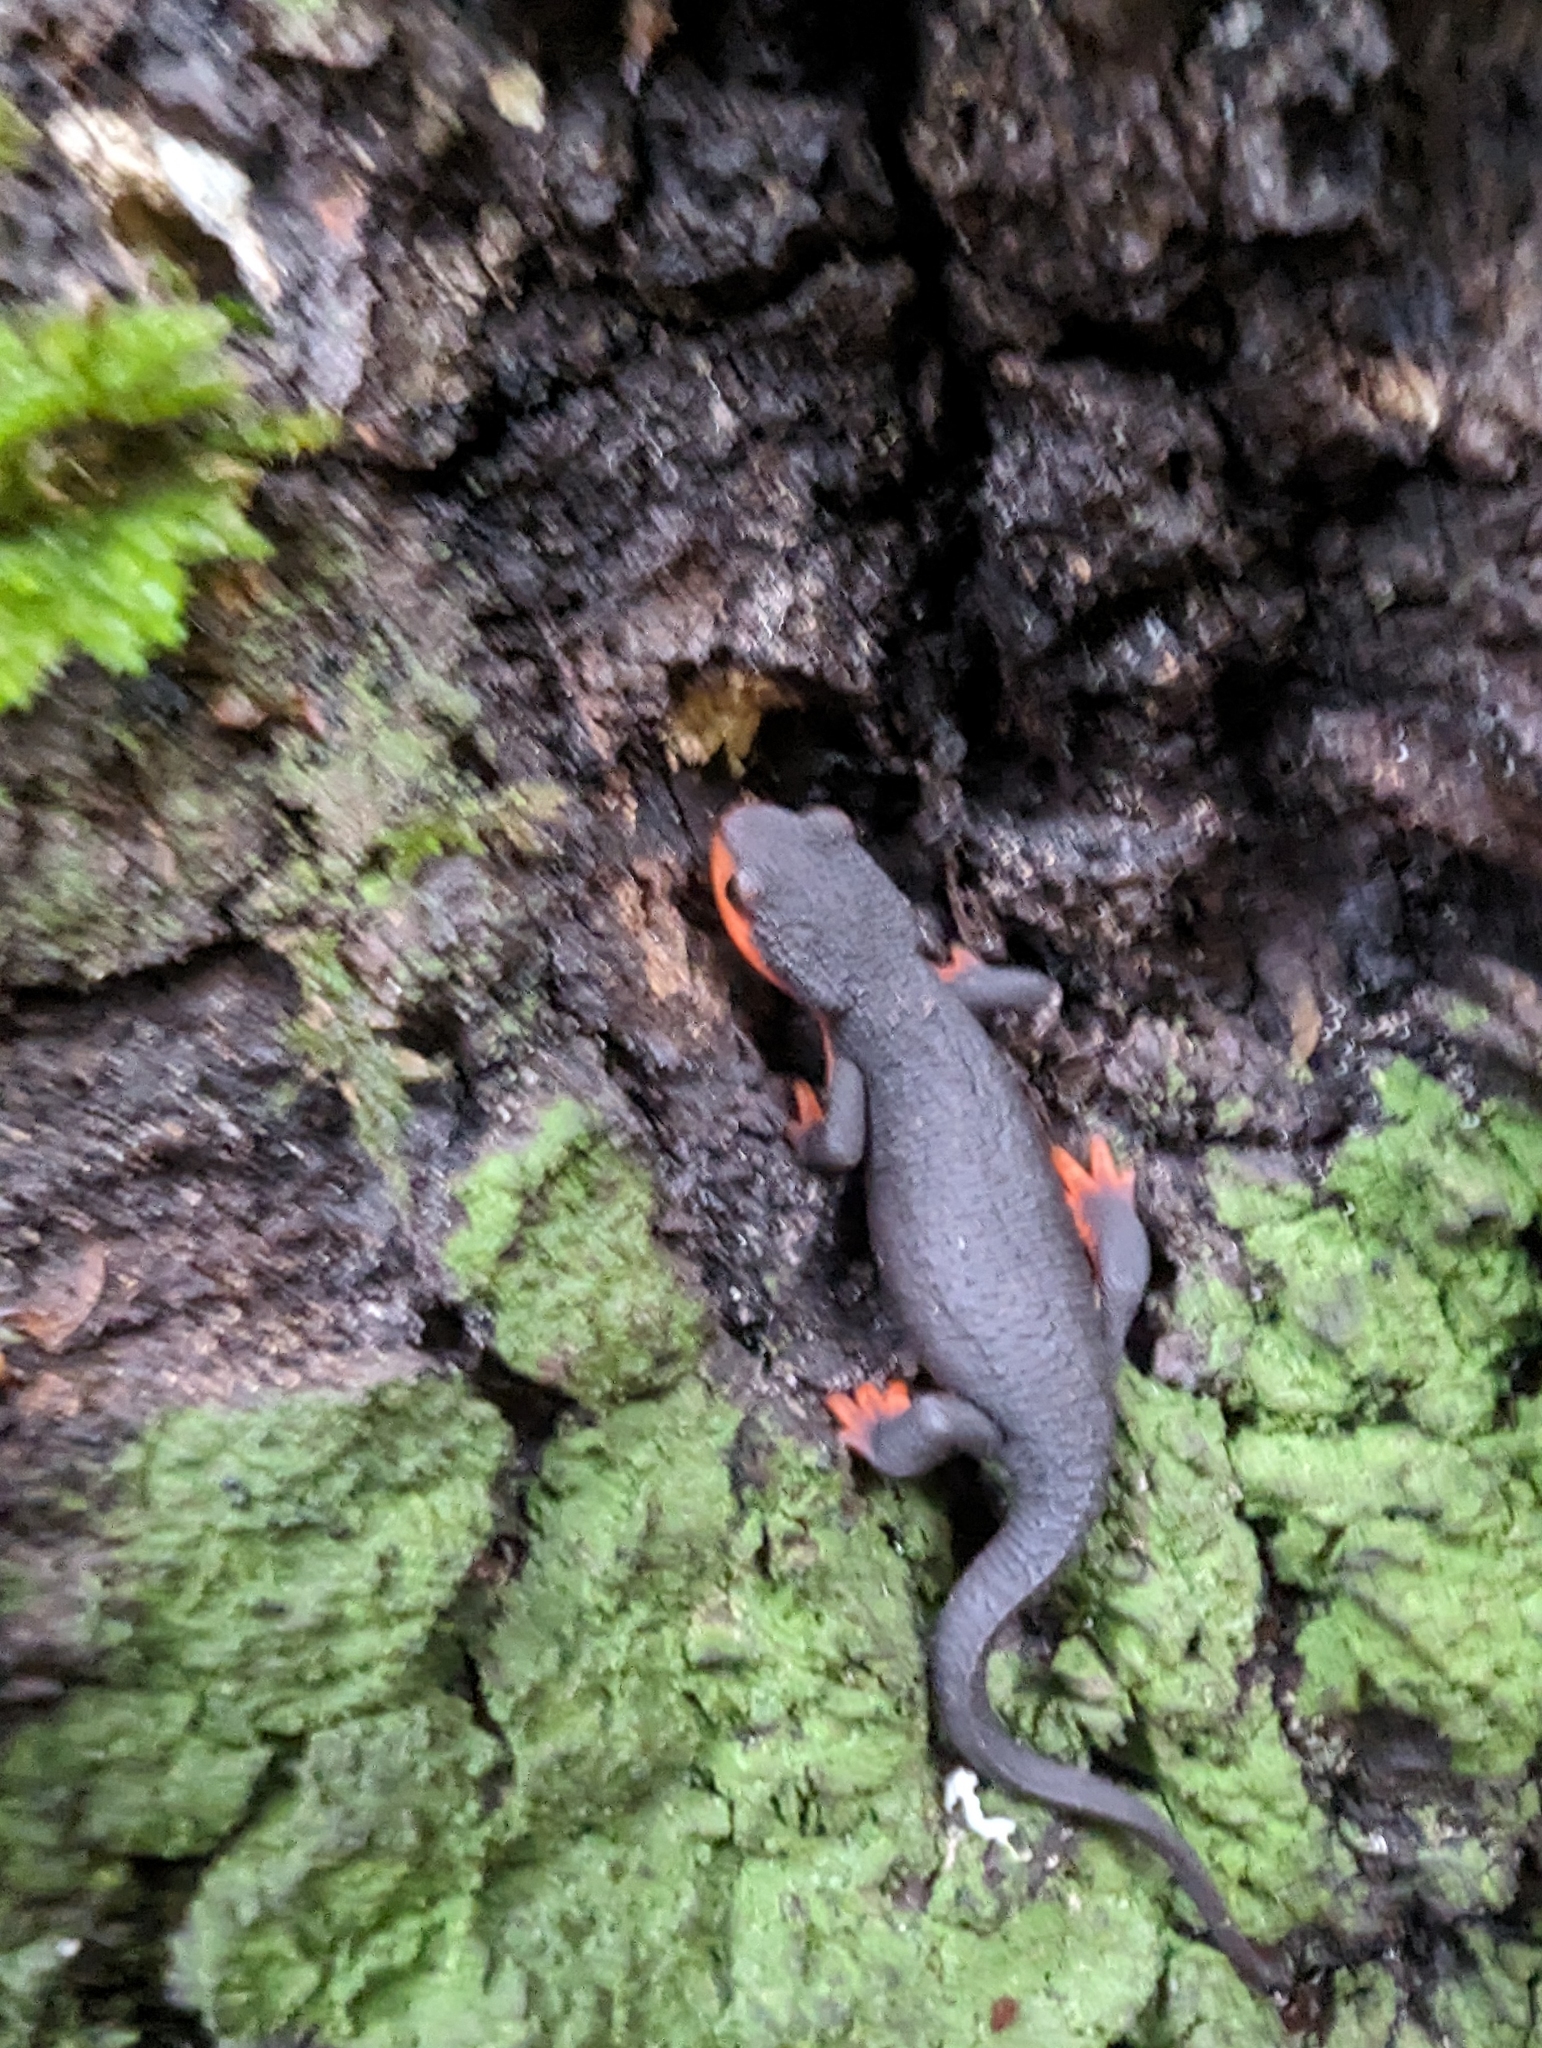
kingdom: Animalia
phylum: Chordata
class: Amphibia
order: Caudata
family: Salamandridae
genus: Taricha
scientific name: Taricha rivularis
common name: Red-bellied newt
